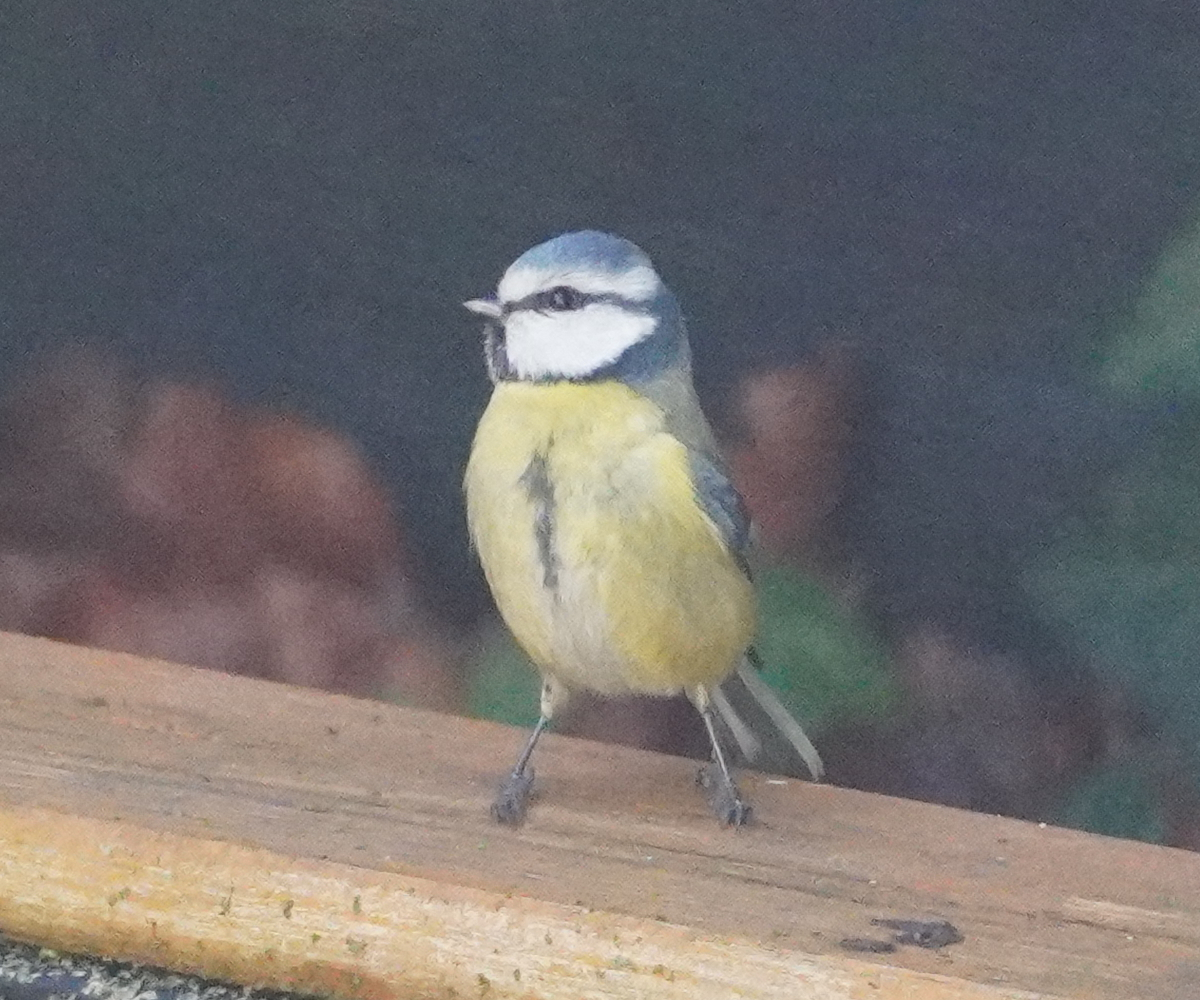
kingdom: Animalia
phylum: Chordata
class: Aves
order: Passeriformes
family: Paridae
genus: Cyanistes
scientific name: Cyanistes caeruleus
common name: Eurasian blue tit
